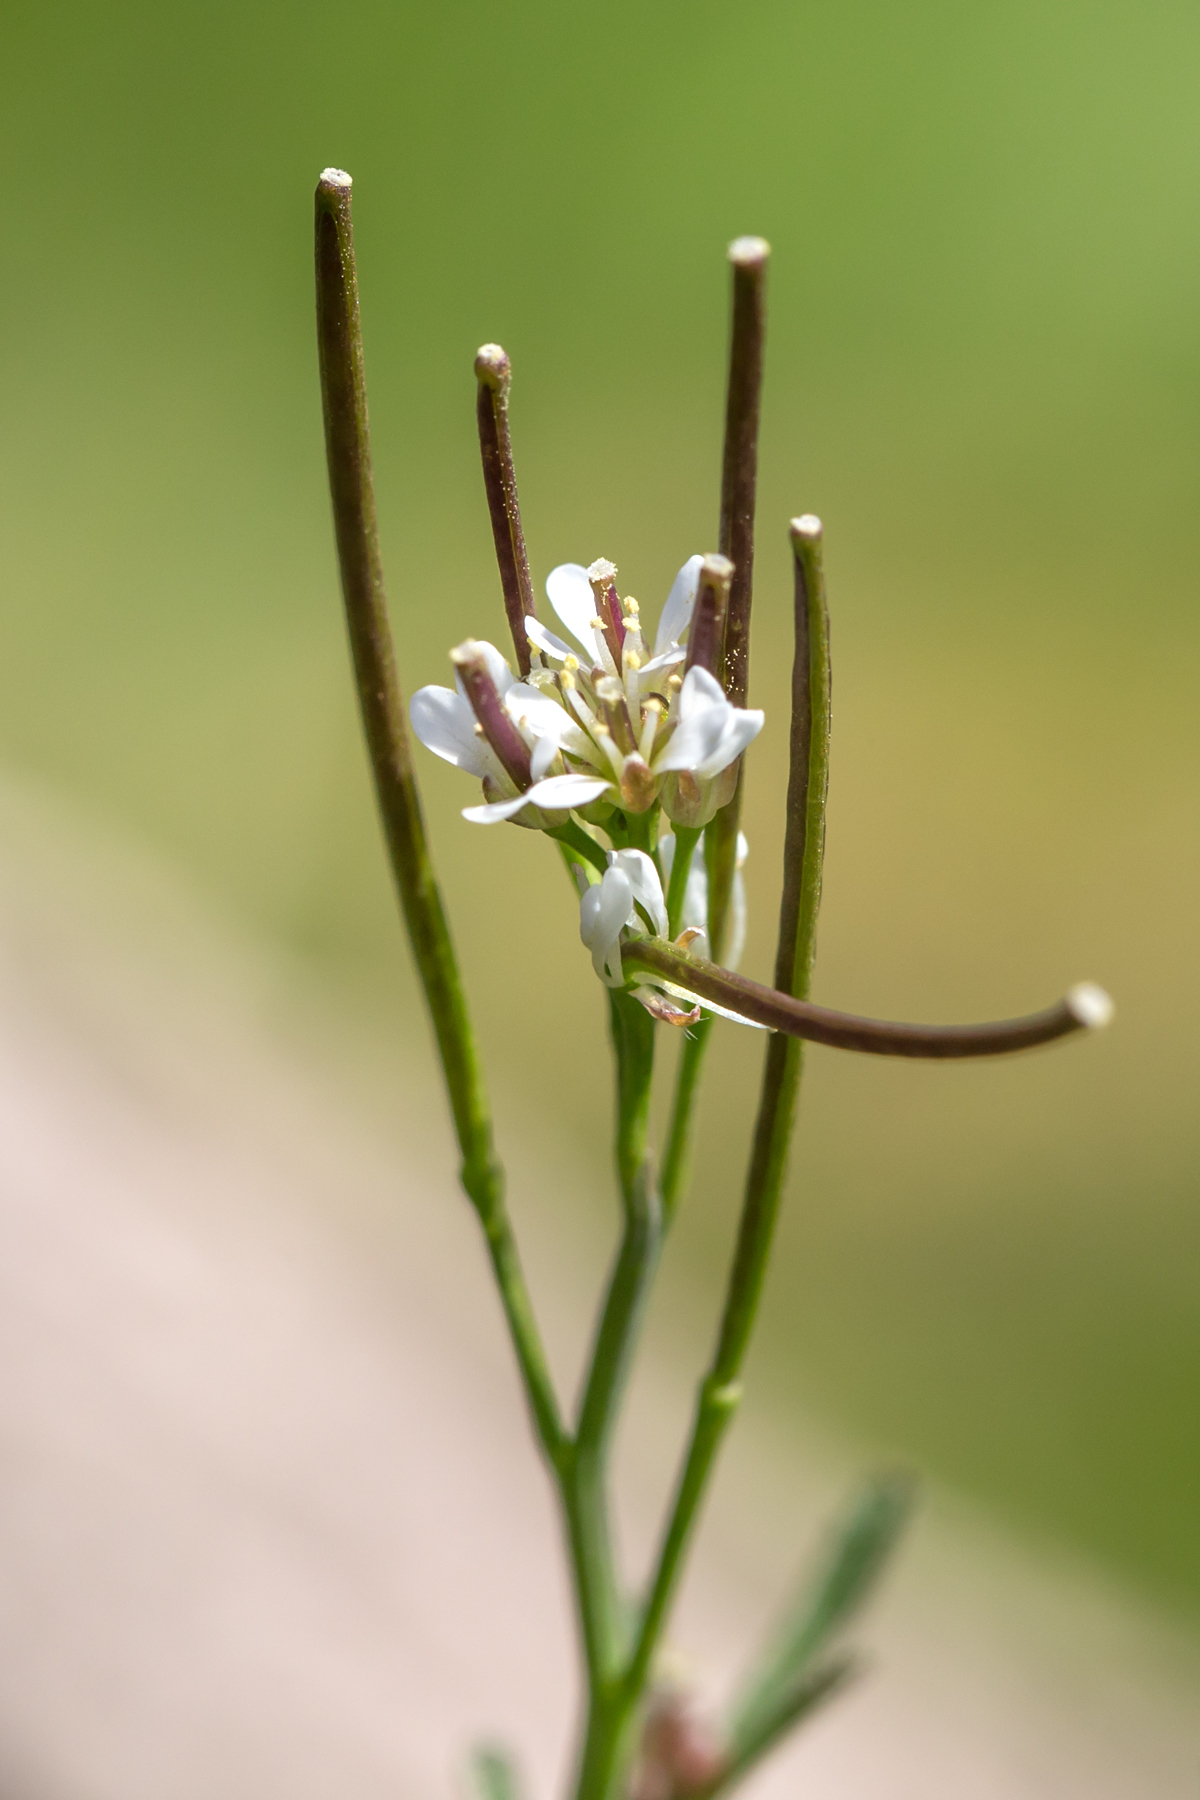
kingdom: Plantae
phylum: Tracheophyta
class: Magnoliopsida
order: Brassicales
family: Brassicaceae
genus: Cardamine
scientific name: Cardamine hirsuta
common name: Hairy bittercress
